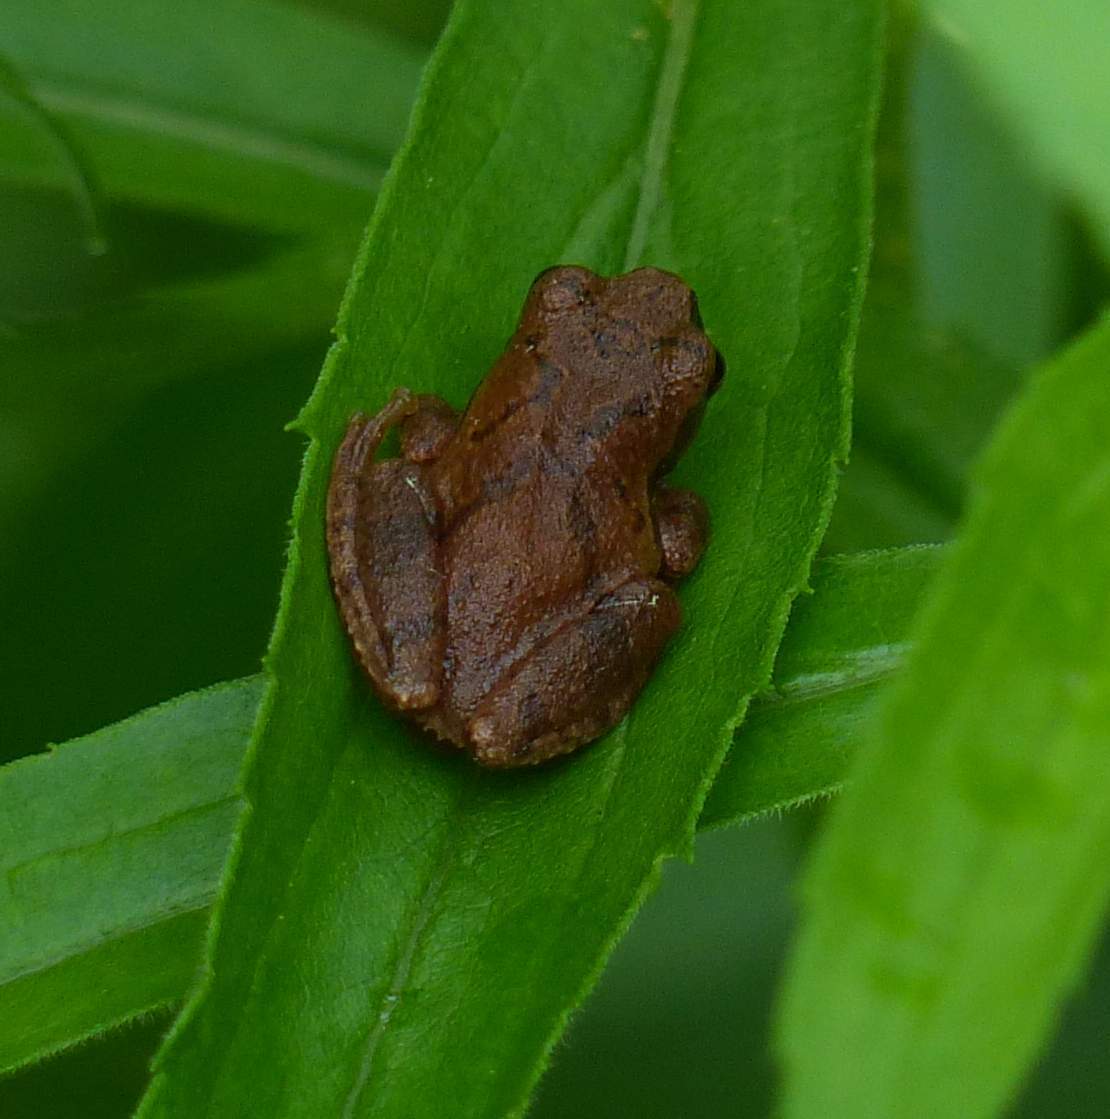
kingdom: Animalia
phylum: Chordata
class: Amphibia
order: Anura
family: Hylidae
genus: Pseudacris
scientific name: Pseudacris crucifer
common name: Spring peeper
